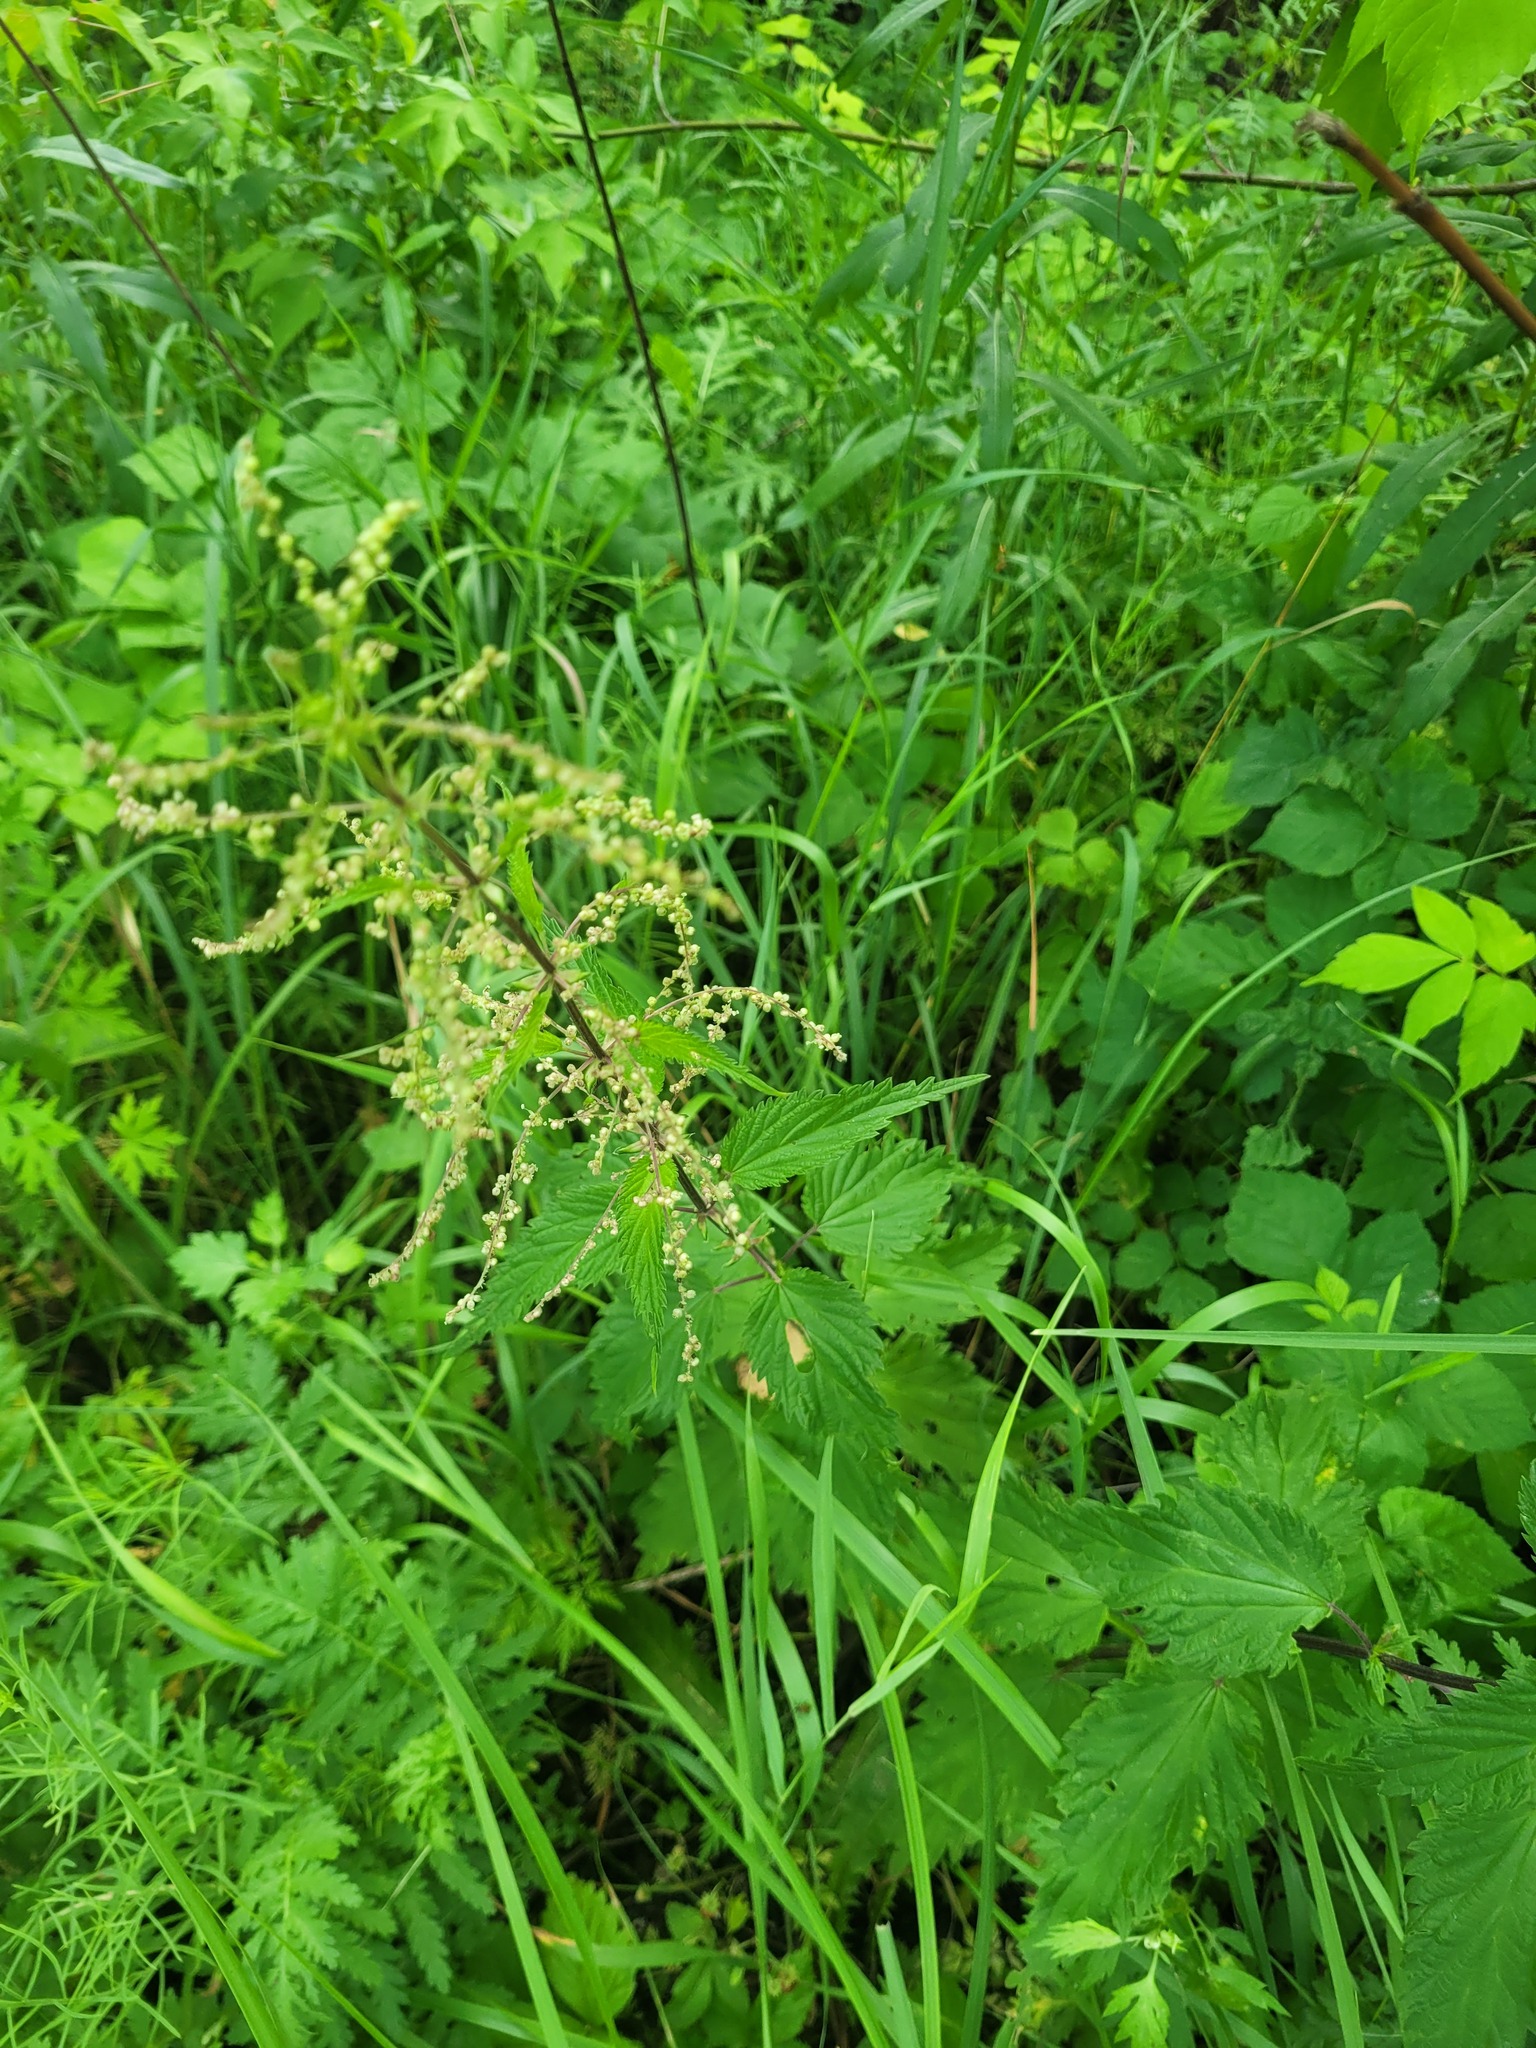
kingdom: Plantae
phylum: Tracheophyta
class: Magnoliopsida
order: Rosales
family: Urticaceae
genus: Urtica
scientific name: Urtica dioica
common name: Common nettle
